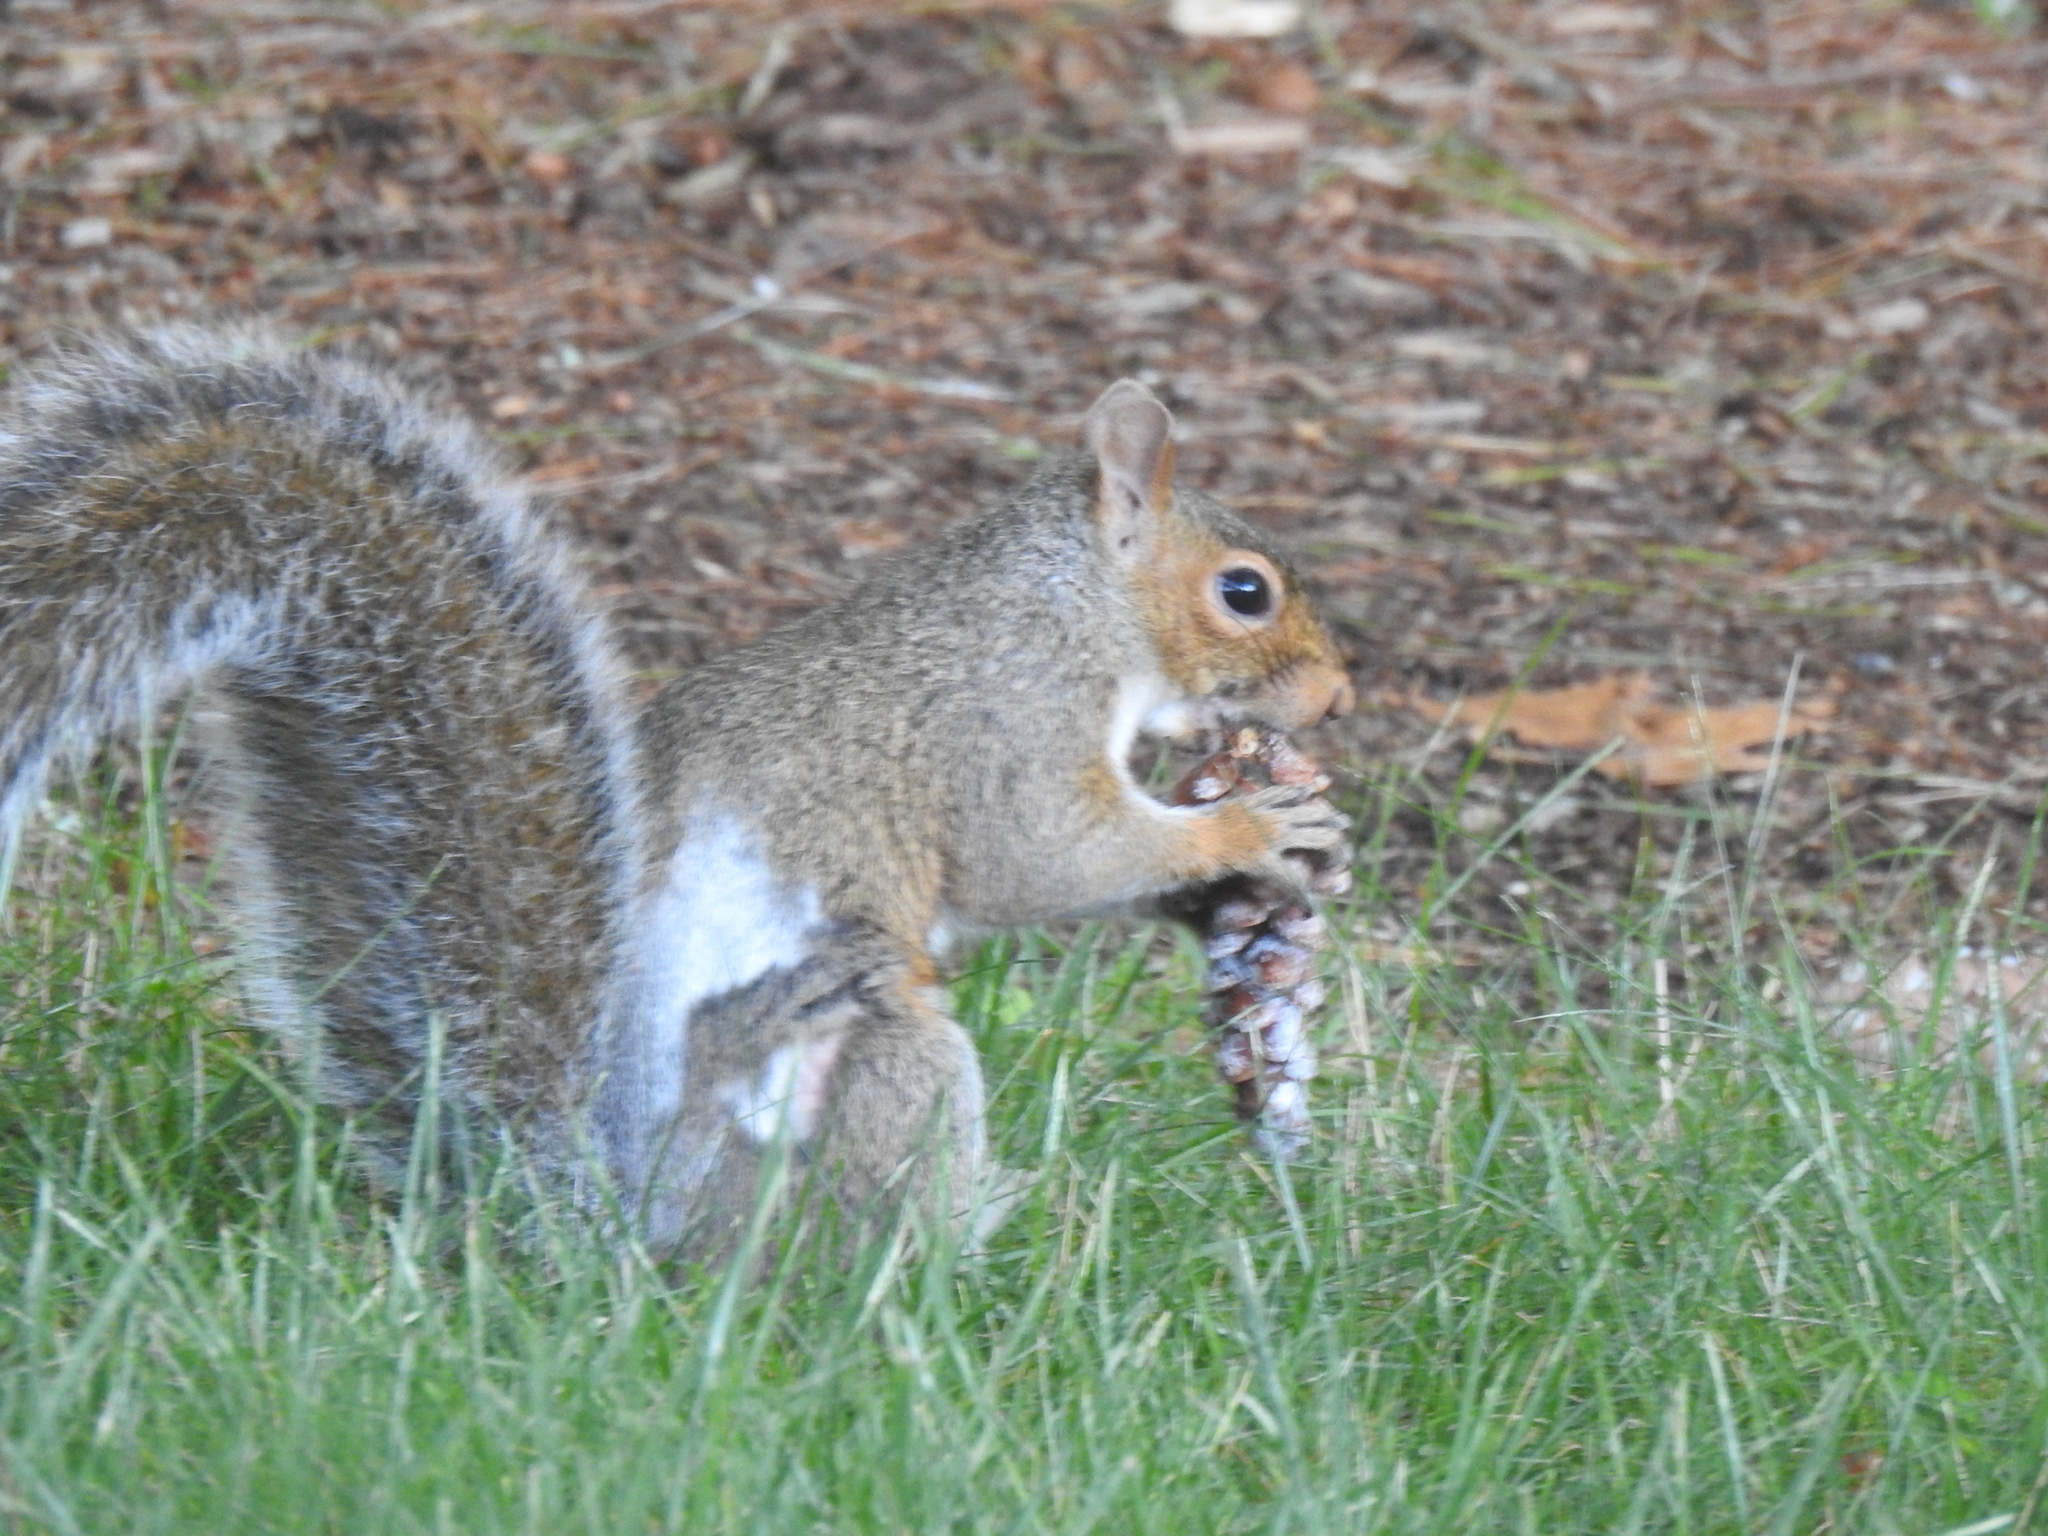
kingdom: Animalia
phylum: Chordata
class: Mammalia
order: Rodentia
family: Sciuridae
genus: Sciurus
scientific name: Sciurus carolinensis
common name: Eastern gray squirrel
